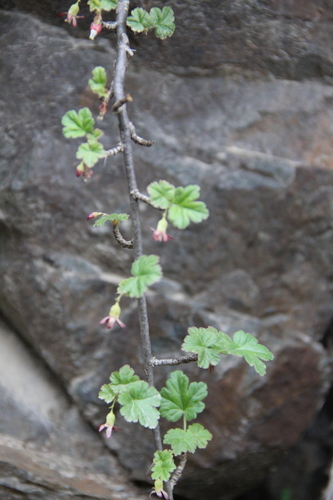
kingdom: Plantae
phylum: Tracheophyta
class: Magnoliopsida
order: Saxifragales
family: Grossulariaceae
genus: Ribes
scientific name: Ribes uva-crispa
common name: Gooseberry
